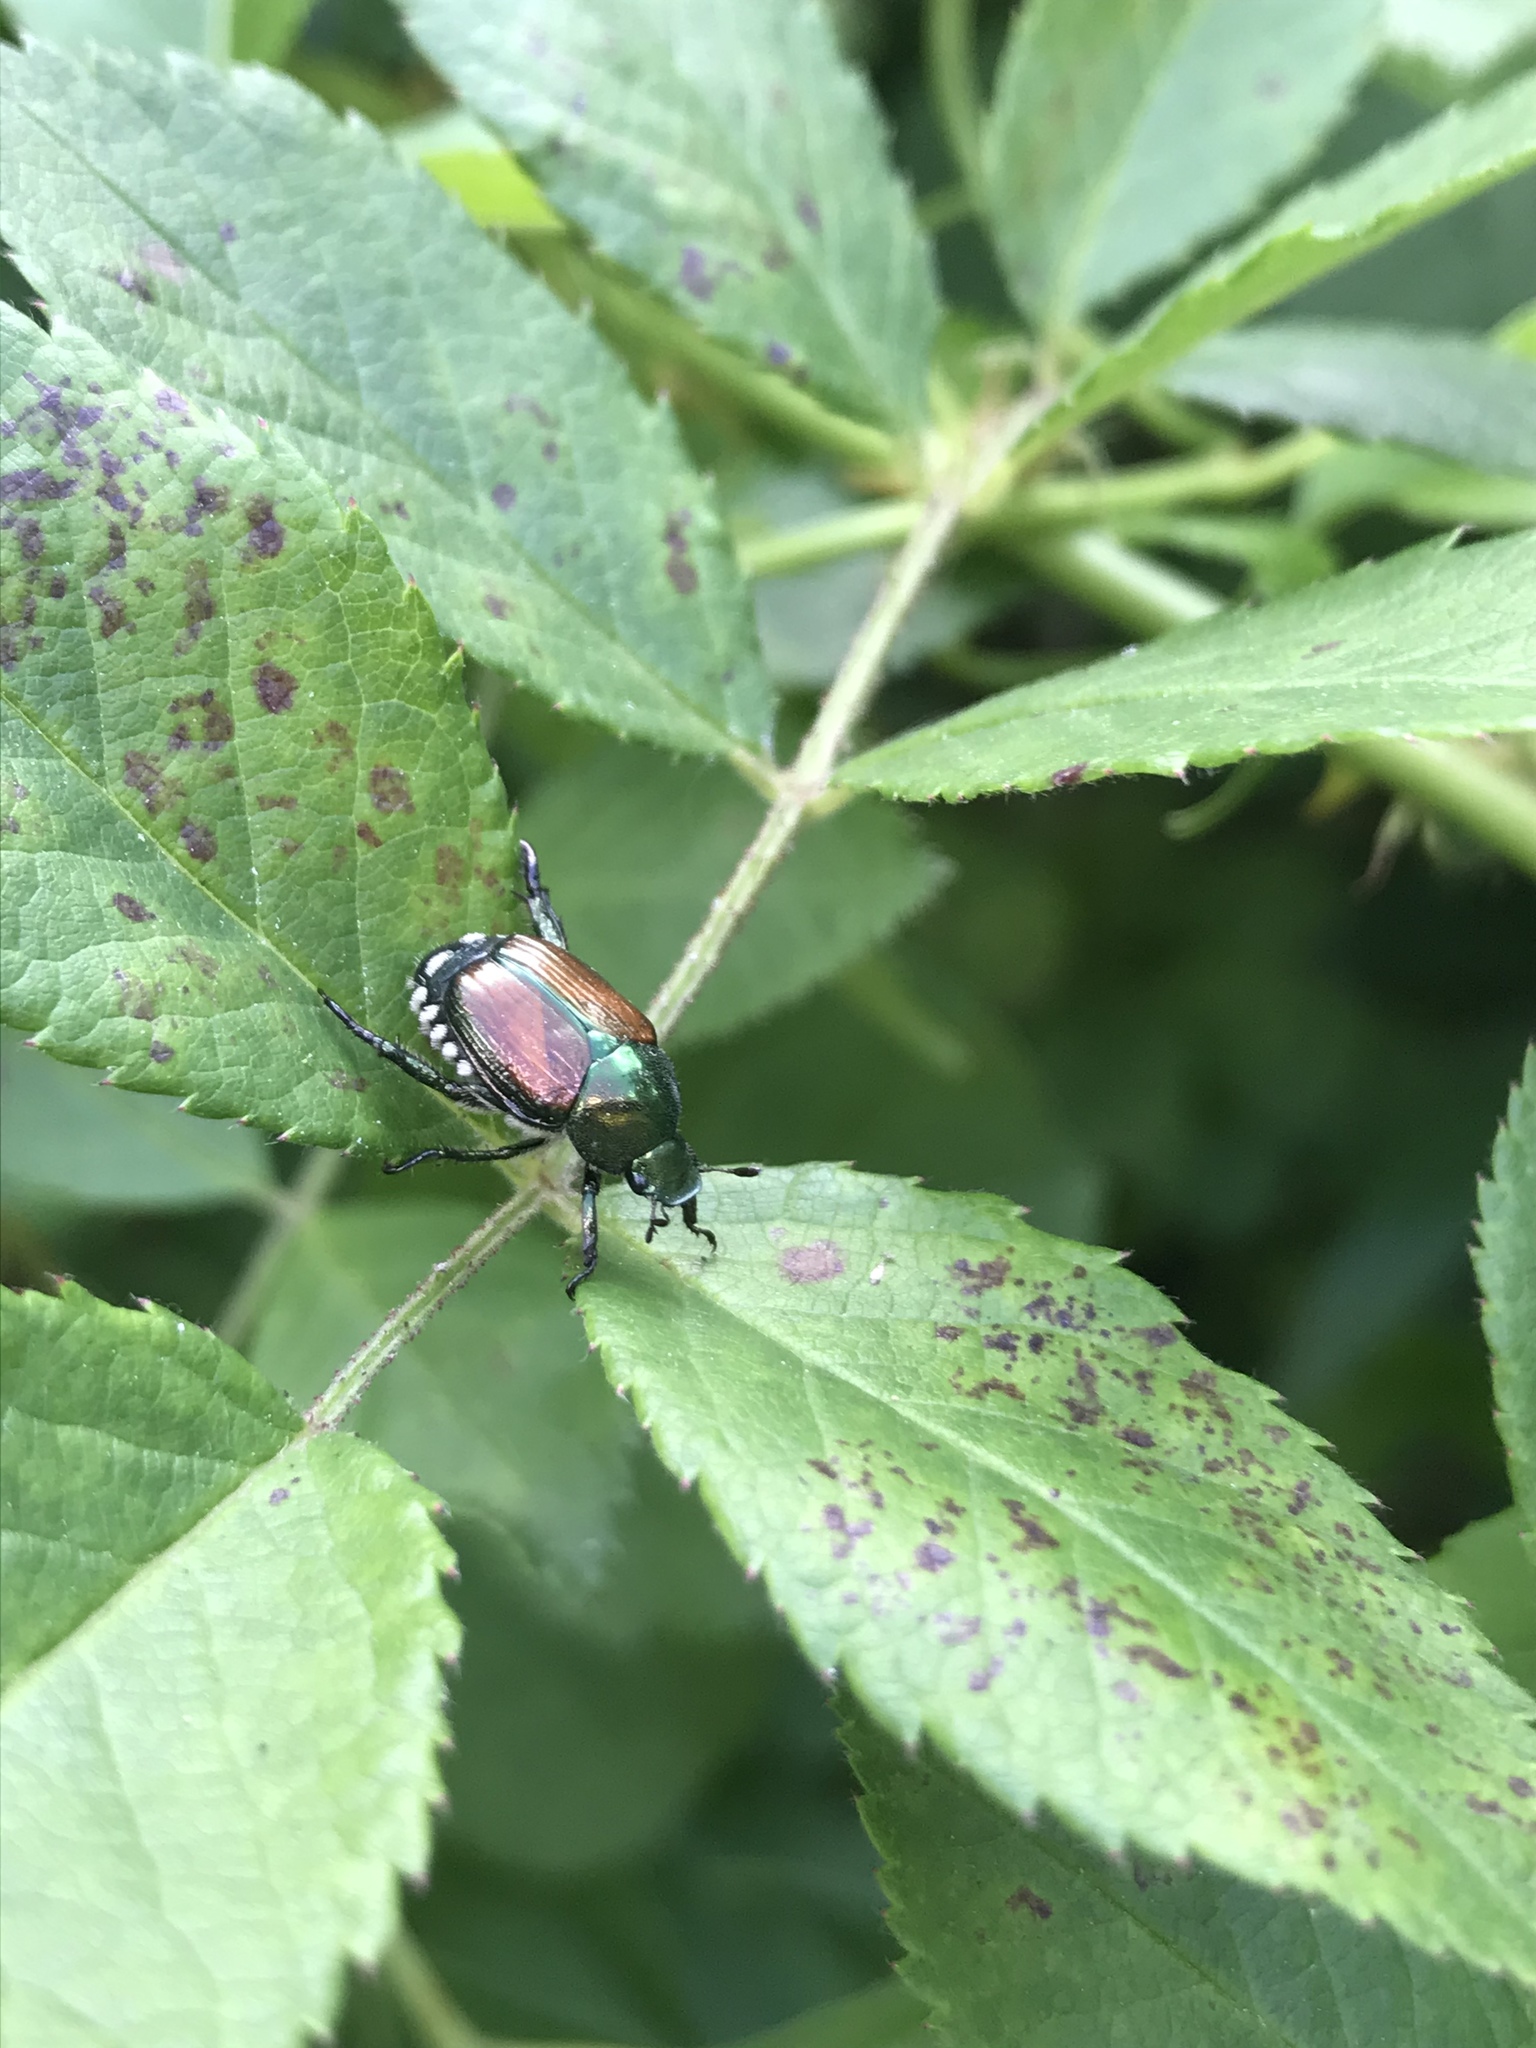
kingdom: Animalia
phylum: Arthropoda
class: Insecta
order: Coleoptera
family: Scarabaeidae
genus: Popillia
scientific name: Popillia japonica
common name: Japanese beetle
